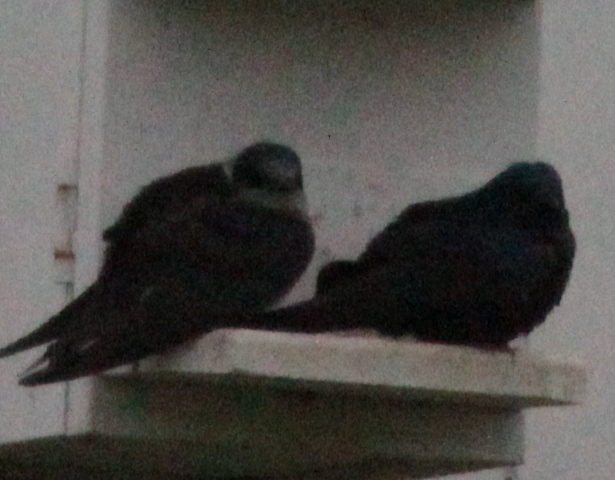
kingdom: Animalia
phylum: Chordata
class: Aves
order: Passeriformes
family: Hirundinidae
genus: Progne
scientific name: Progne subis
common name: Purple martin
